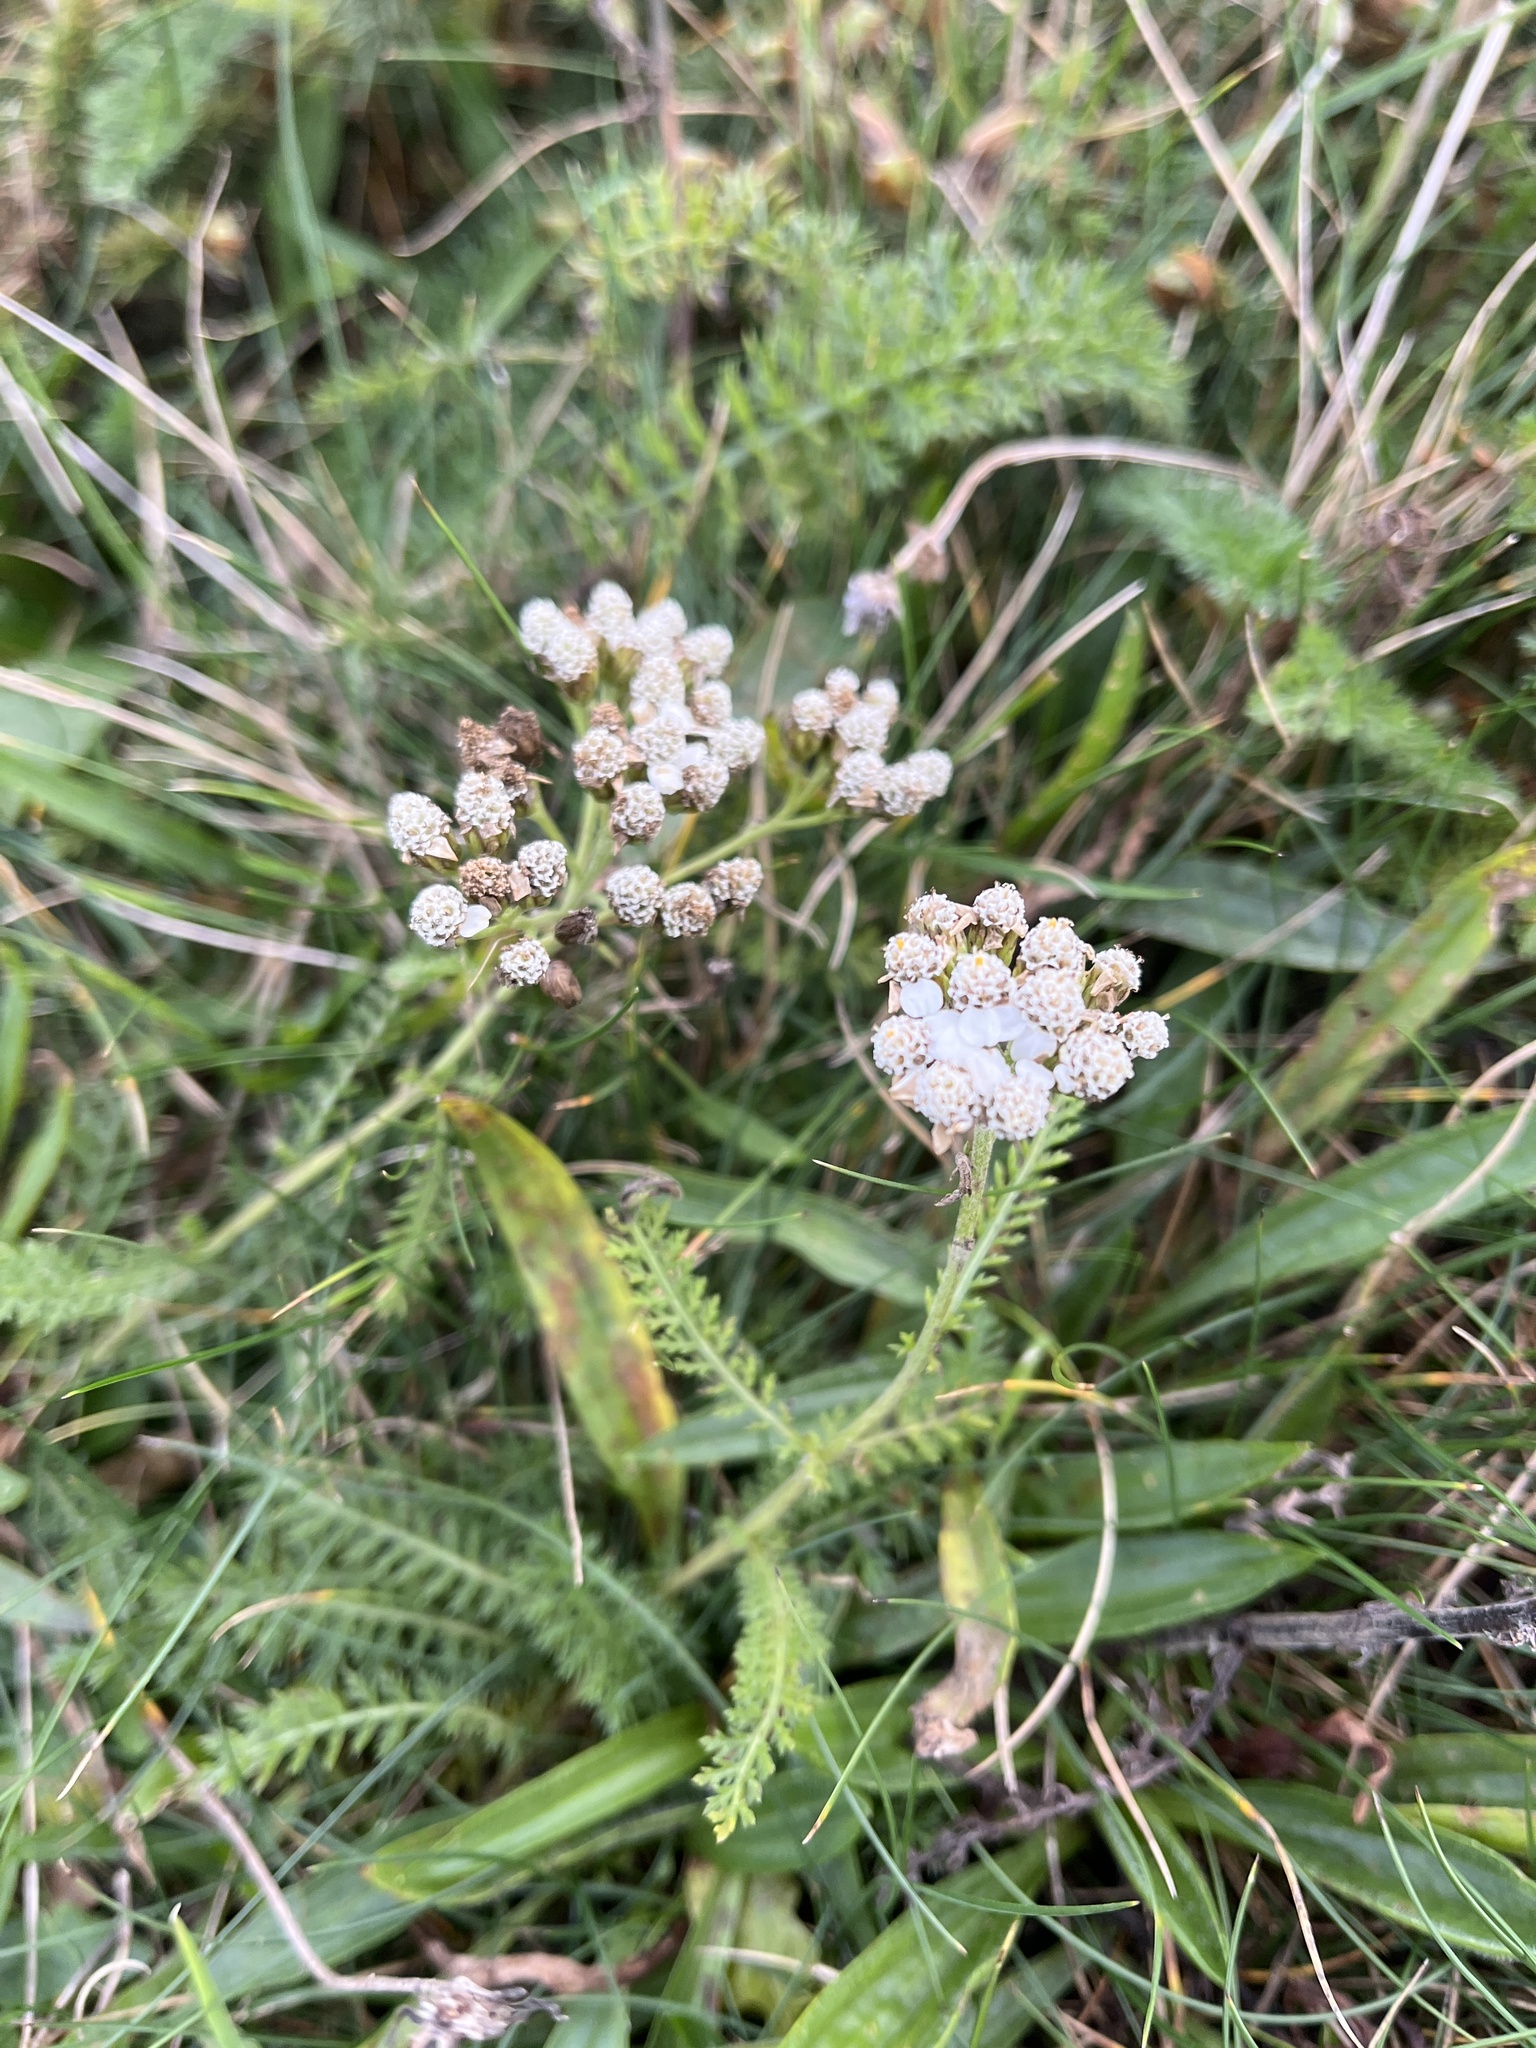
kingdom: Plantae
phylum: Tracheophyta
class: Magnoliopsida
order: Asterales
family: Asteraceae
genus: Achillea
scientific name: Achillea millefolium
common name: Yarrow
